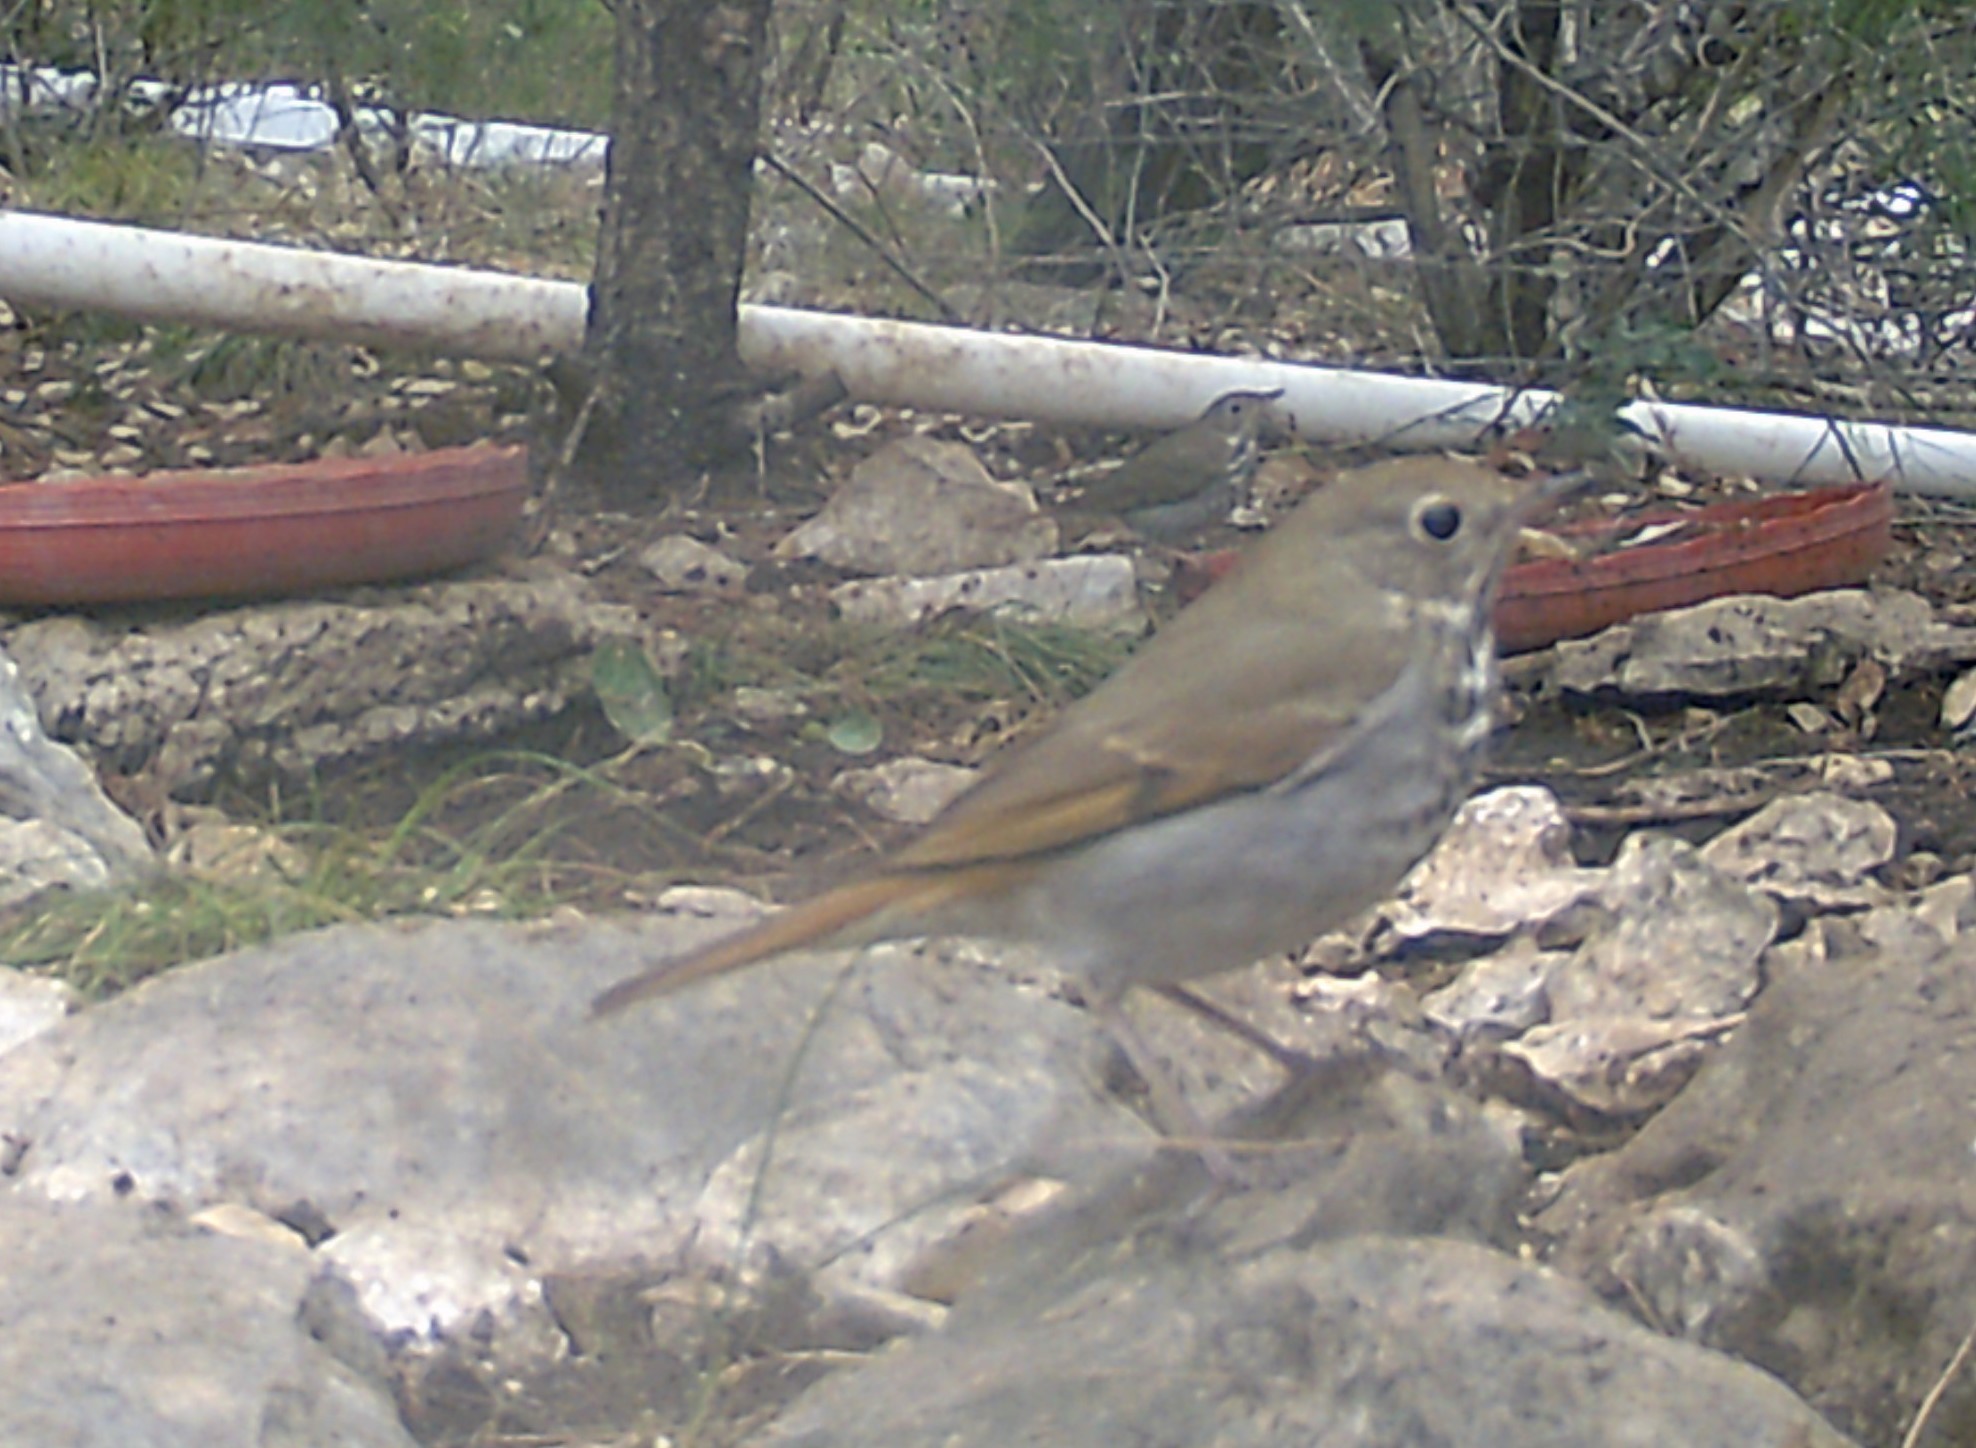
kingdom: Animalia
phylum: Chordata
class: Aves
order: Passeriformes
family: Turdidae
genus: Catharus
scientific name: Catharus guttatus
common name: Hermit thrush
